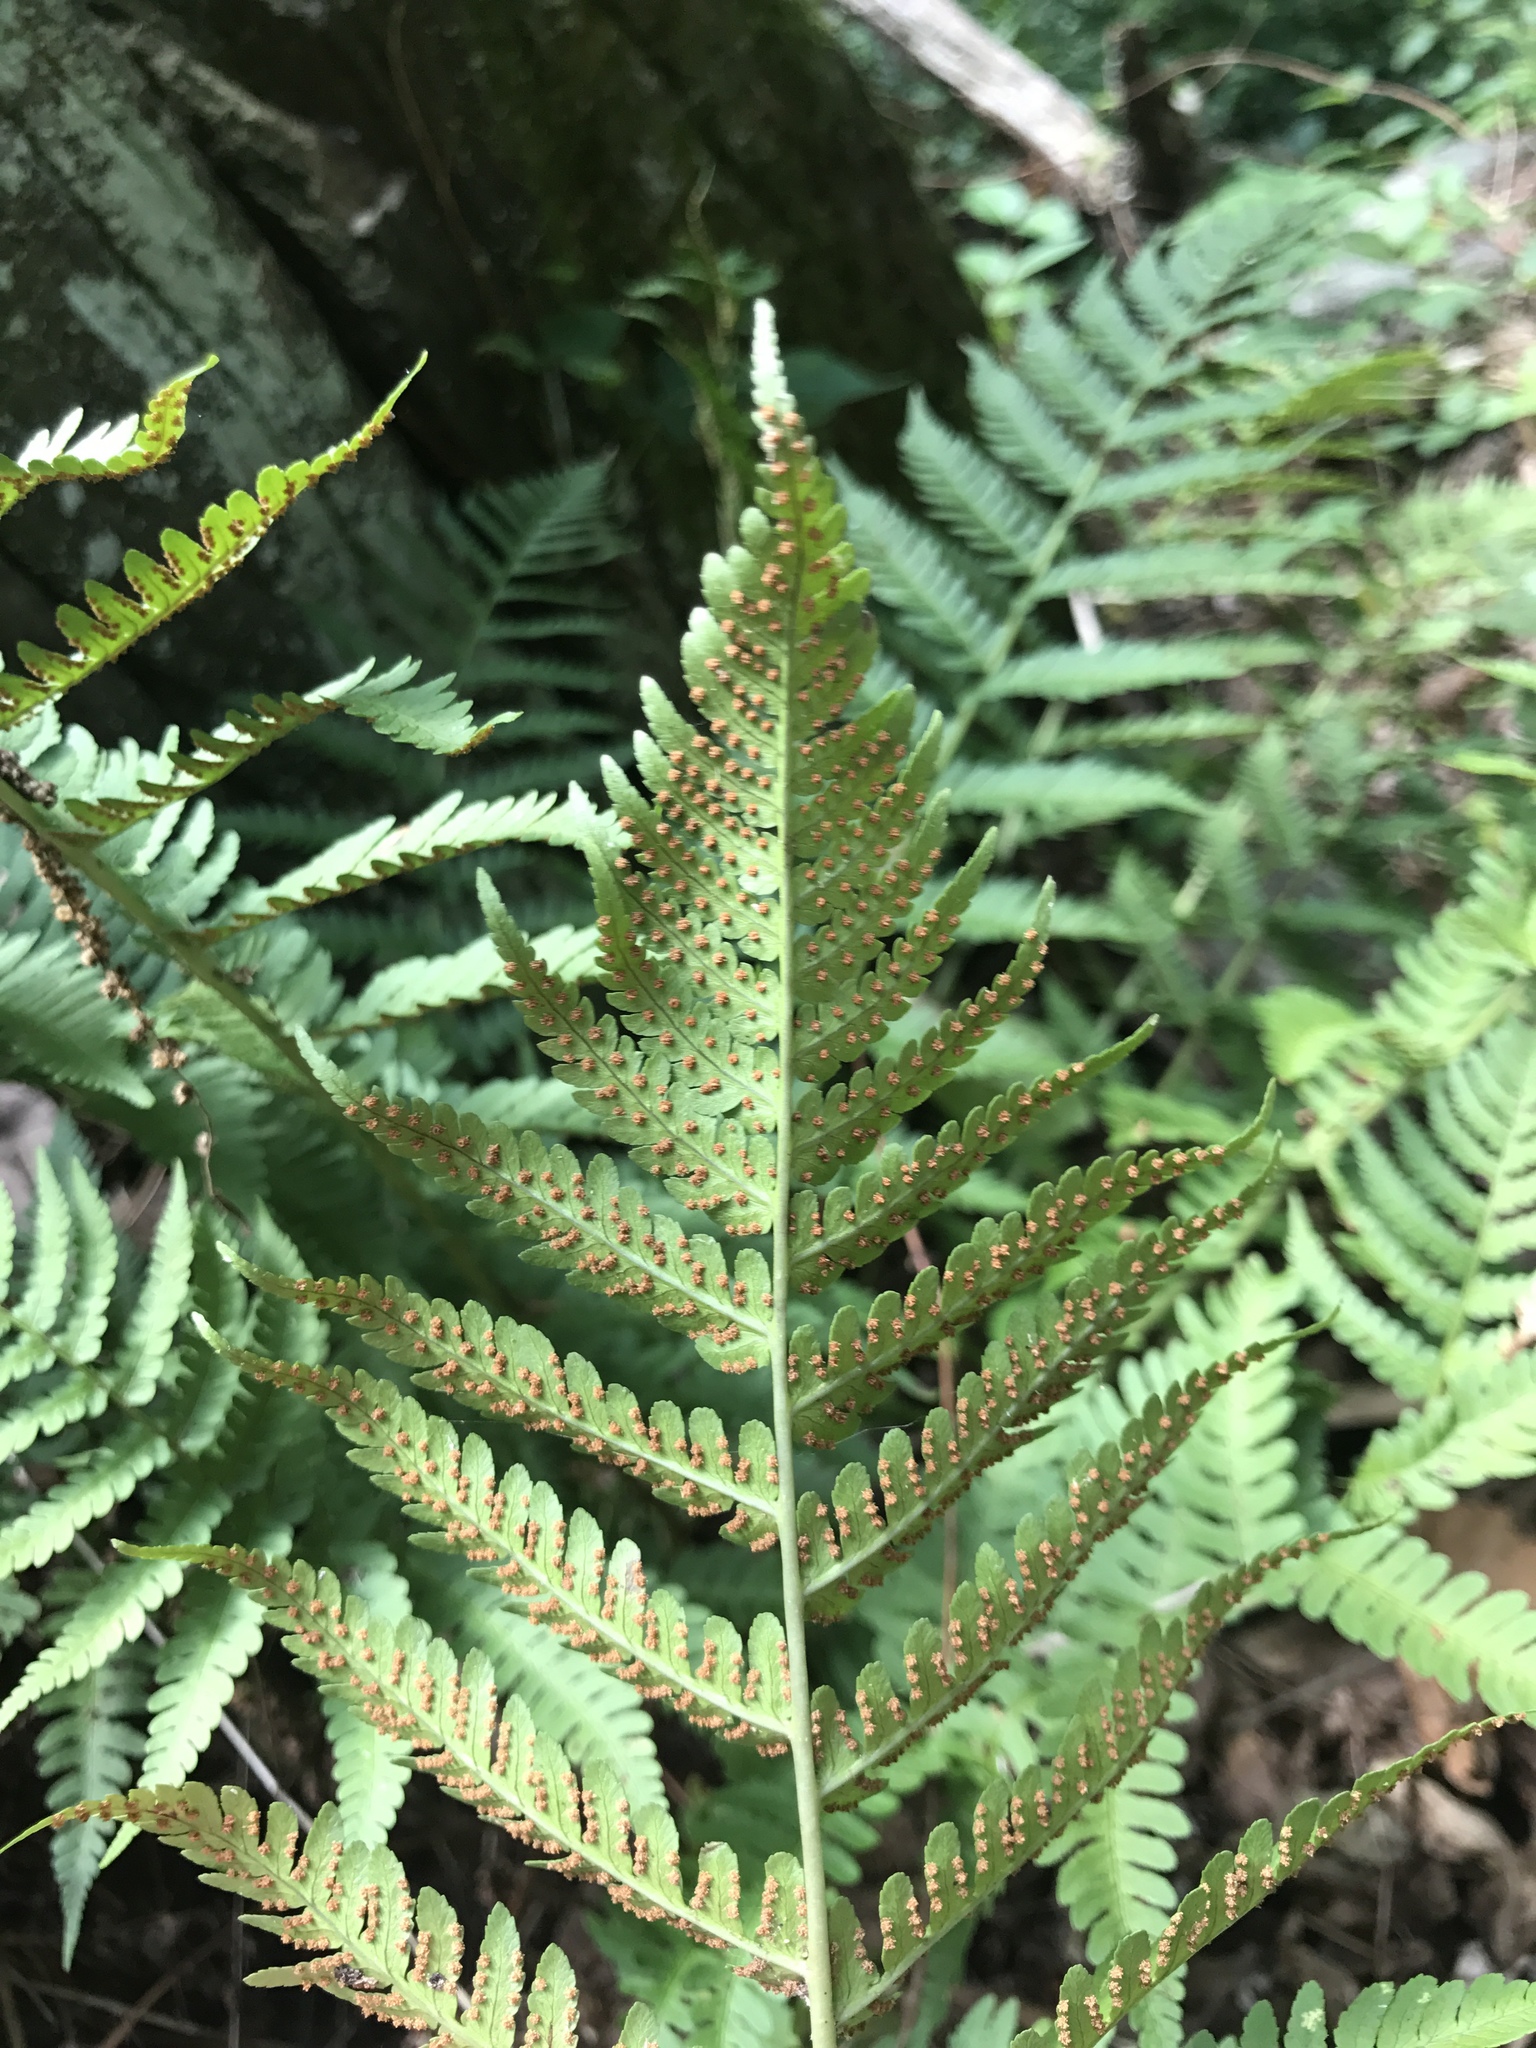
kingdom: Plantae
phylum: Tracheophyta
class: Polypodiopsida
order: Polypodiales
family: Dryopteridaceae
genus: Dryopteris
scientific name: Dryopteris marginalis
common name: Marginal wood fern
